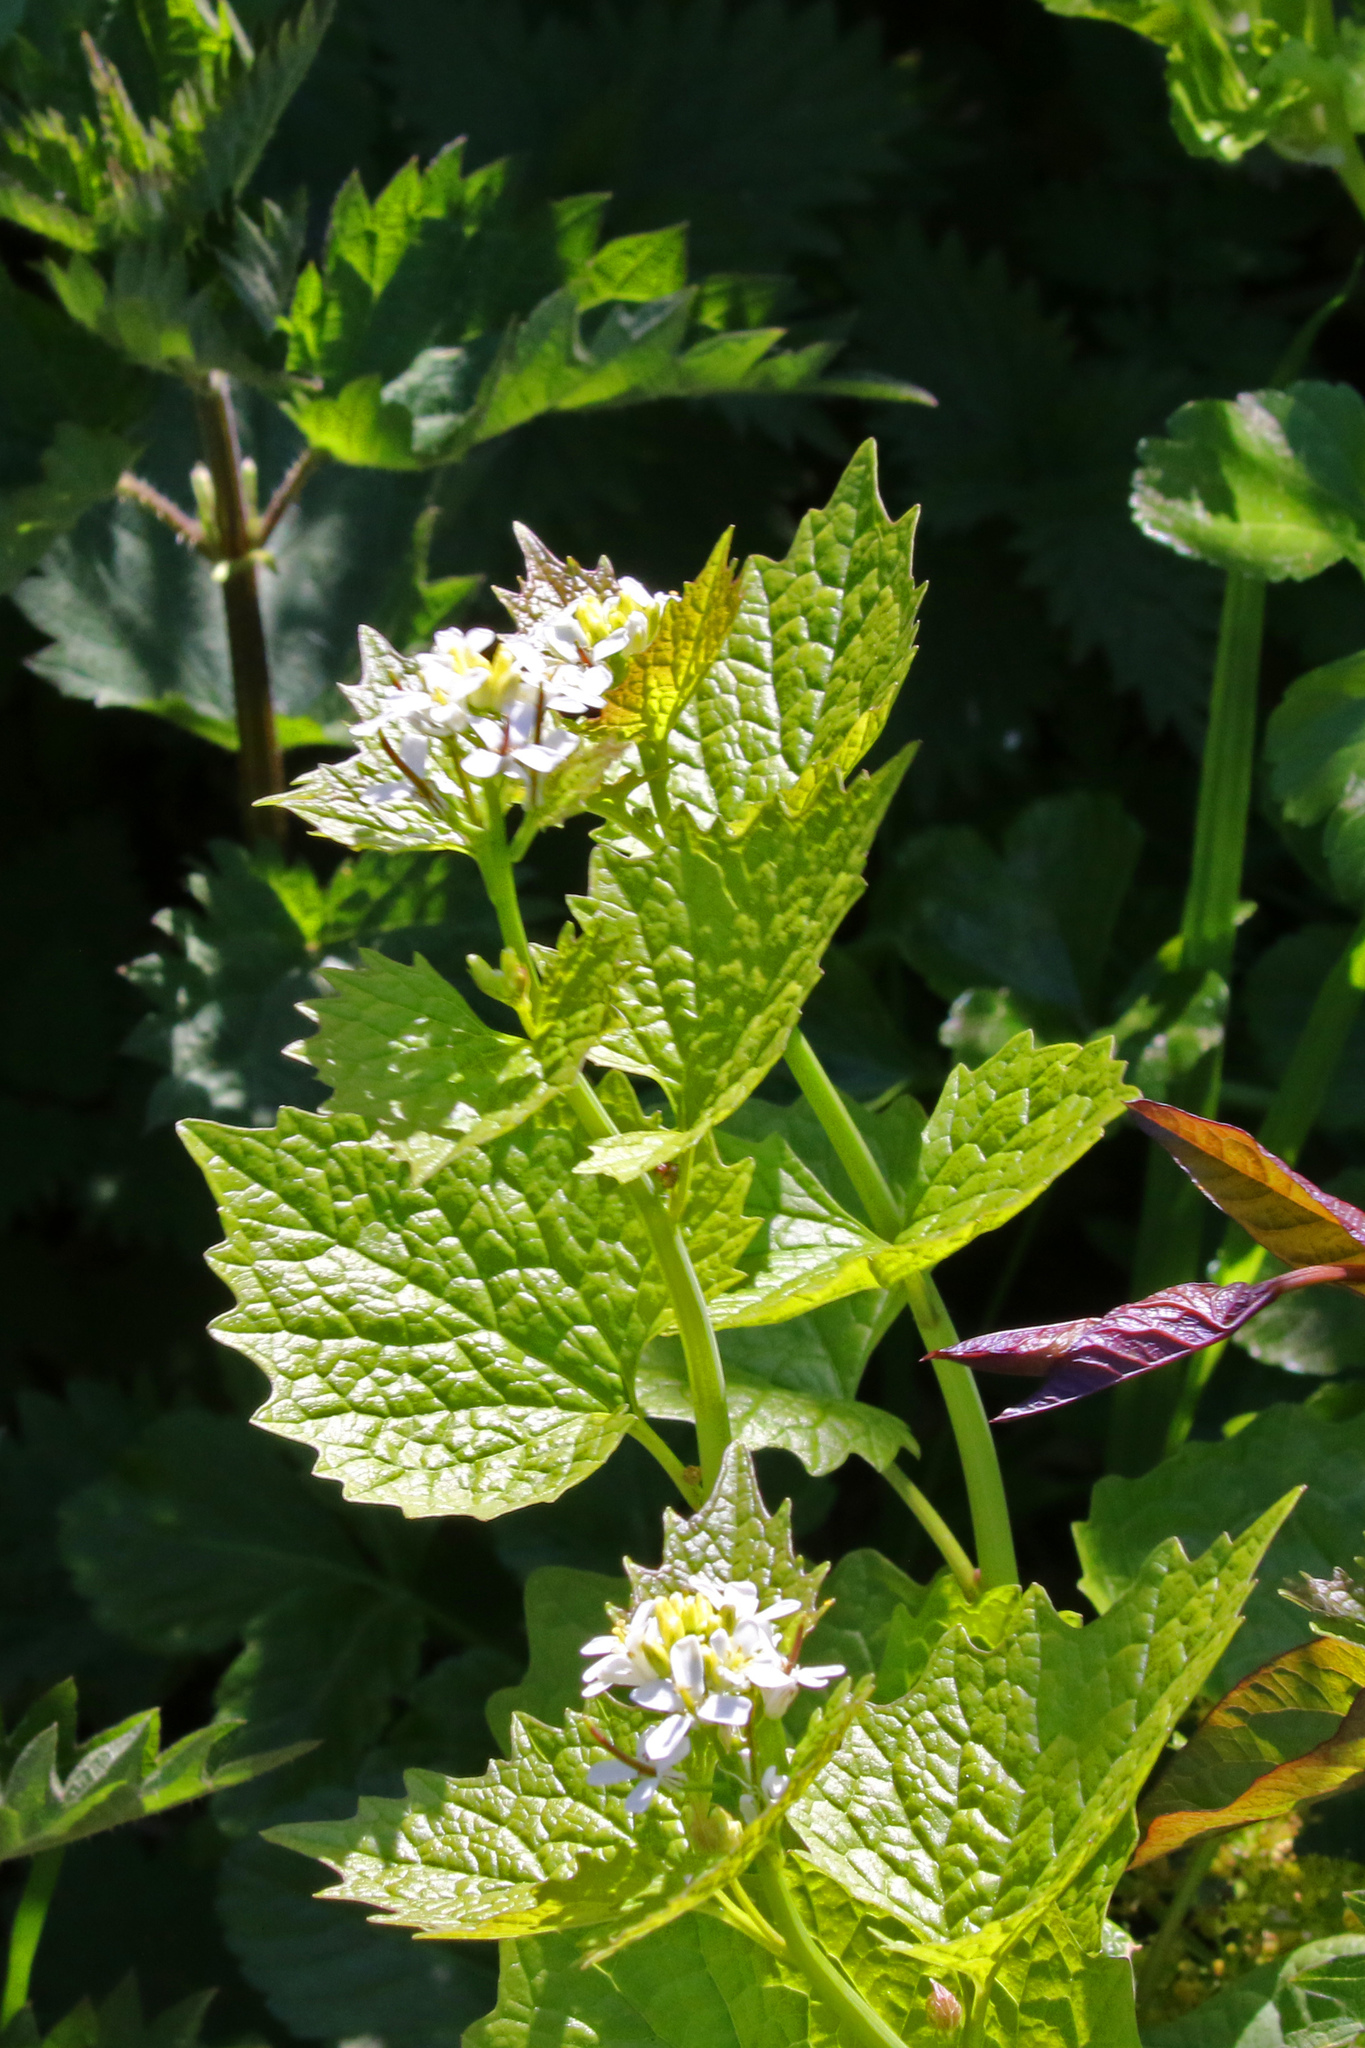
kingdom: Plantae
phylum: Tracheophyta
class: Magnoliopsida
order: Brassicales
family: Brassicaceae
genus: Alliaria
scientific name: Alliaria petiolata
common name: Garlic mustard
